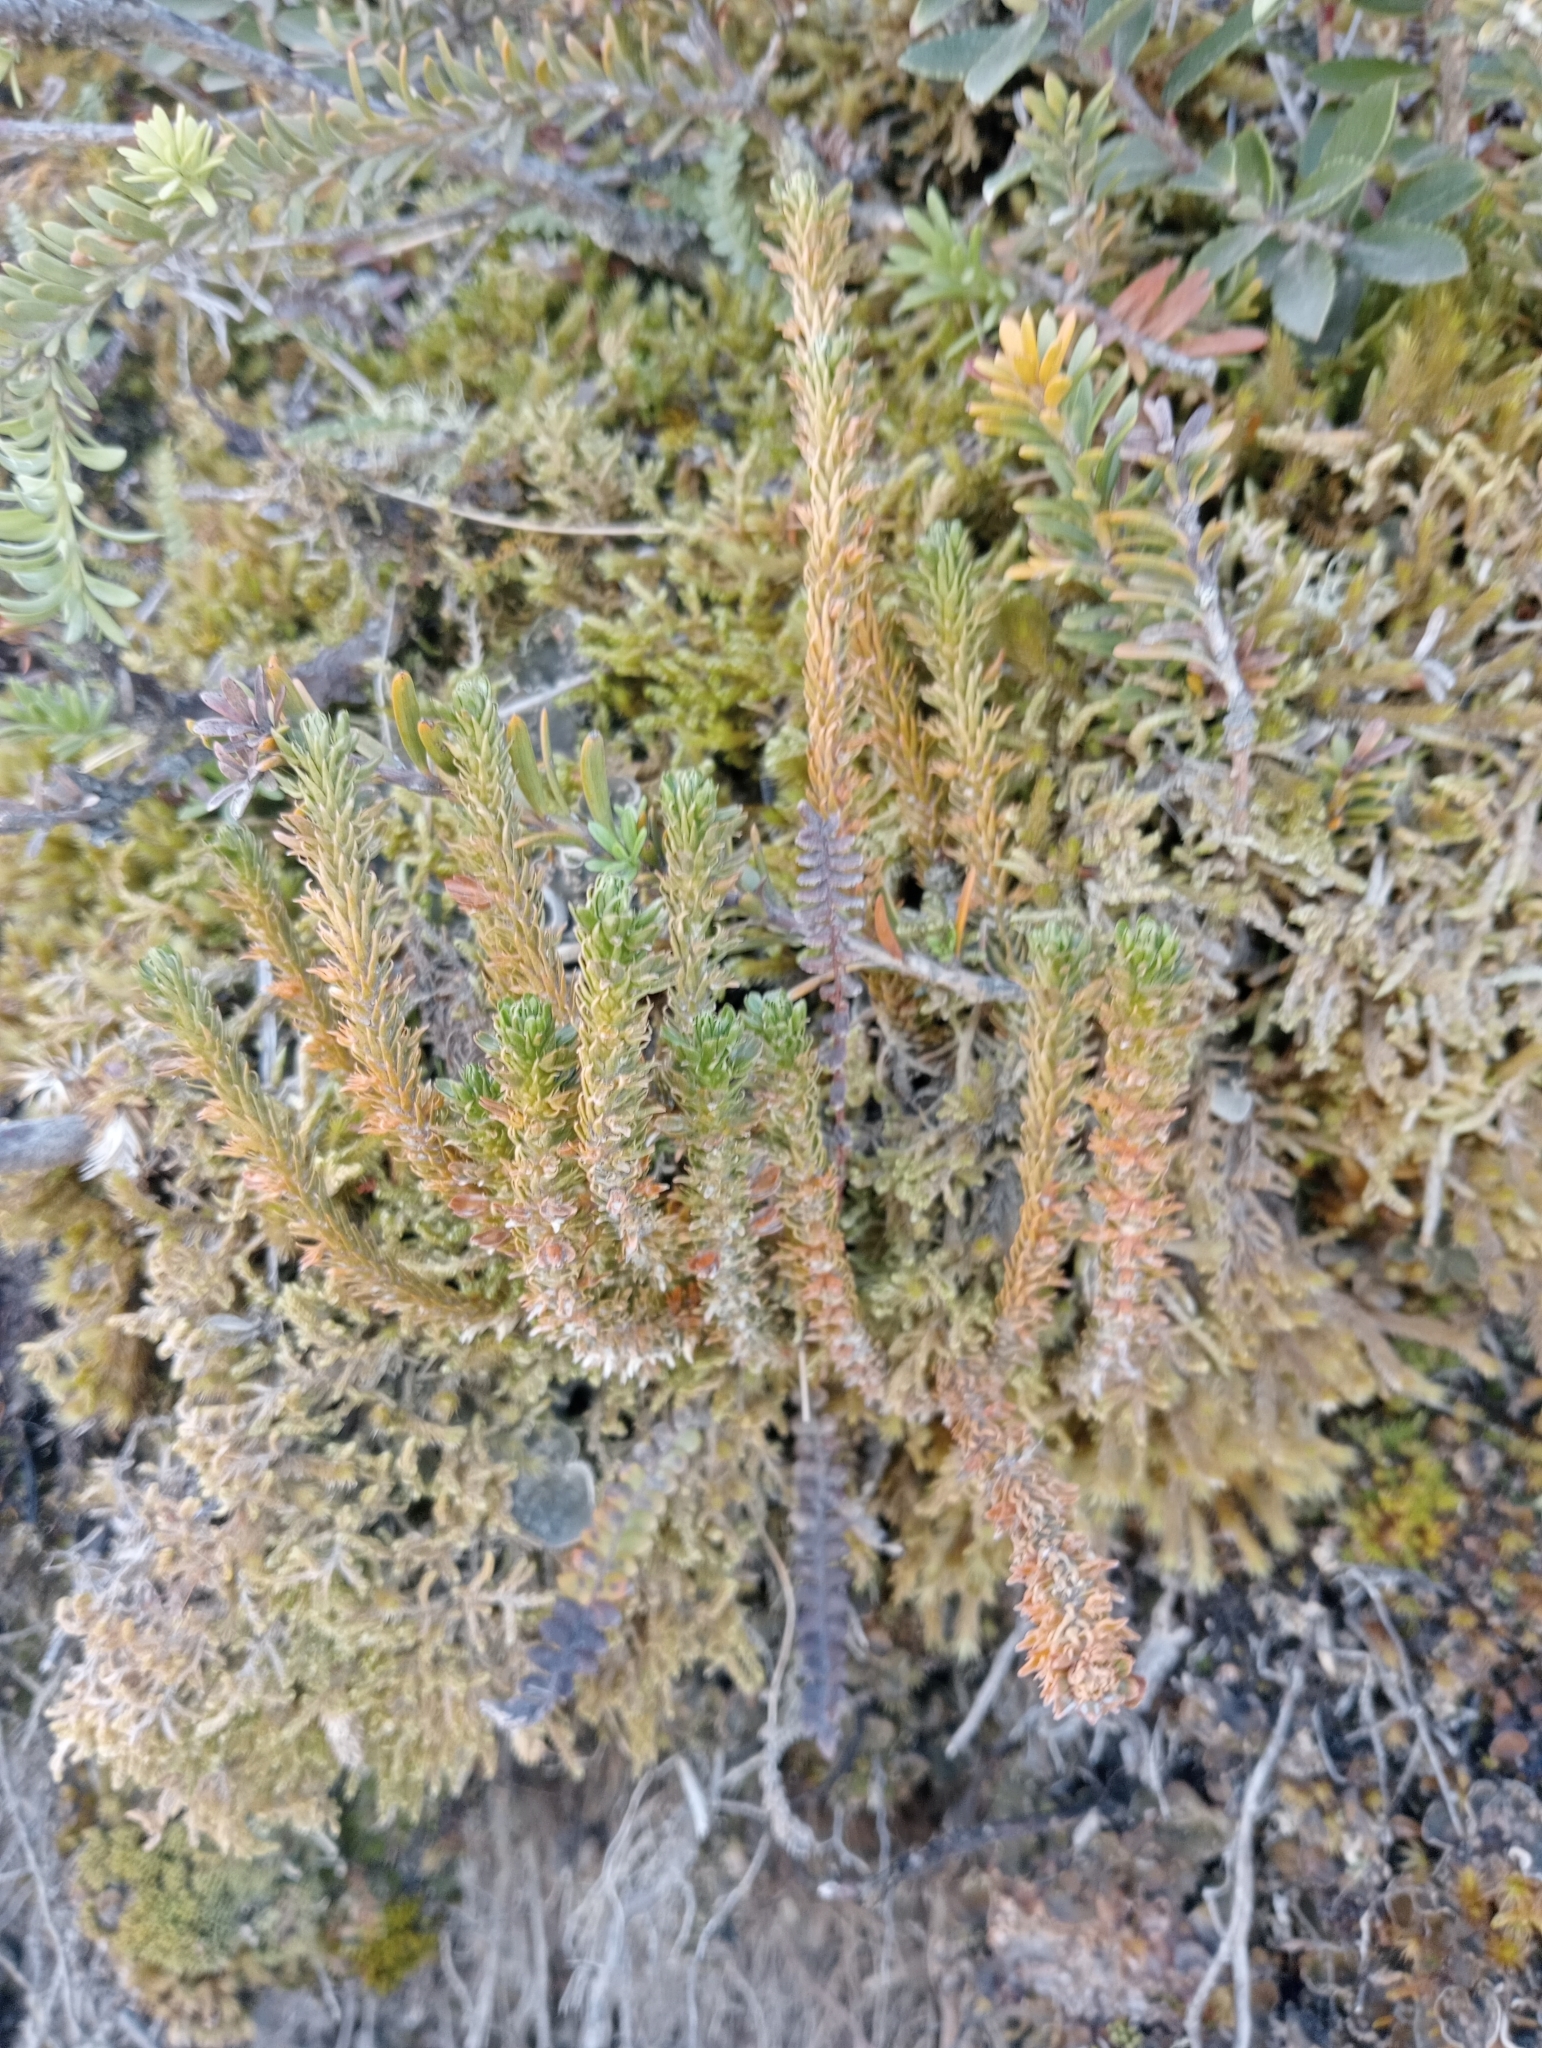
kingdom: Plantae
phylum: Tracheophyta
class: Lycopodiopsida
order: Lycopodiales
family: Lycopodiaceae
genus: Huperzia
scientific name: Huperzia australiana
